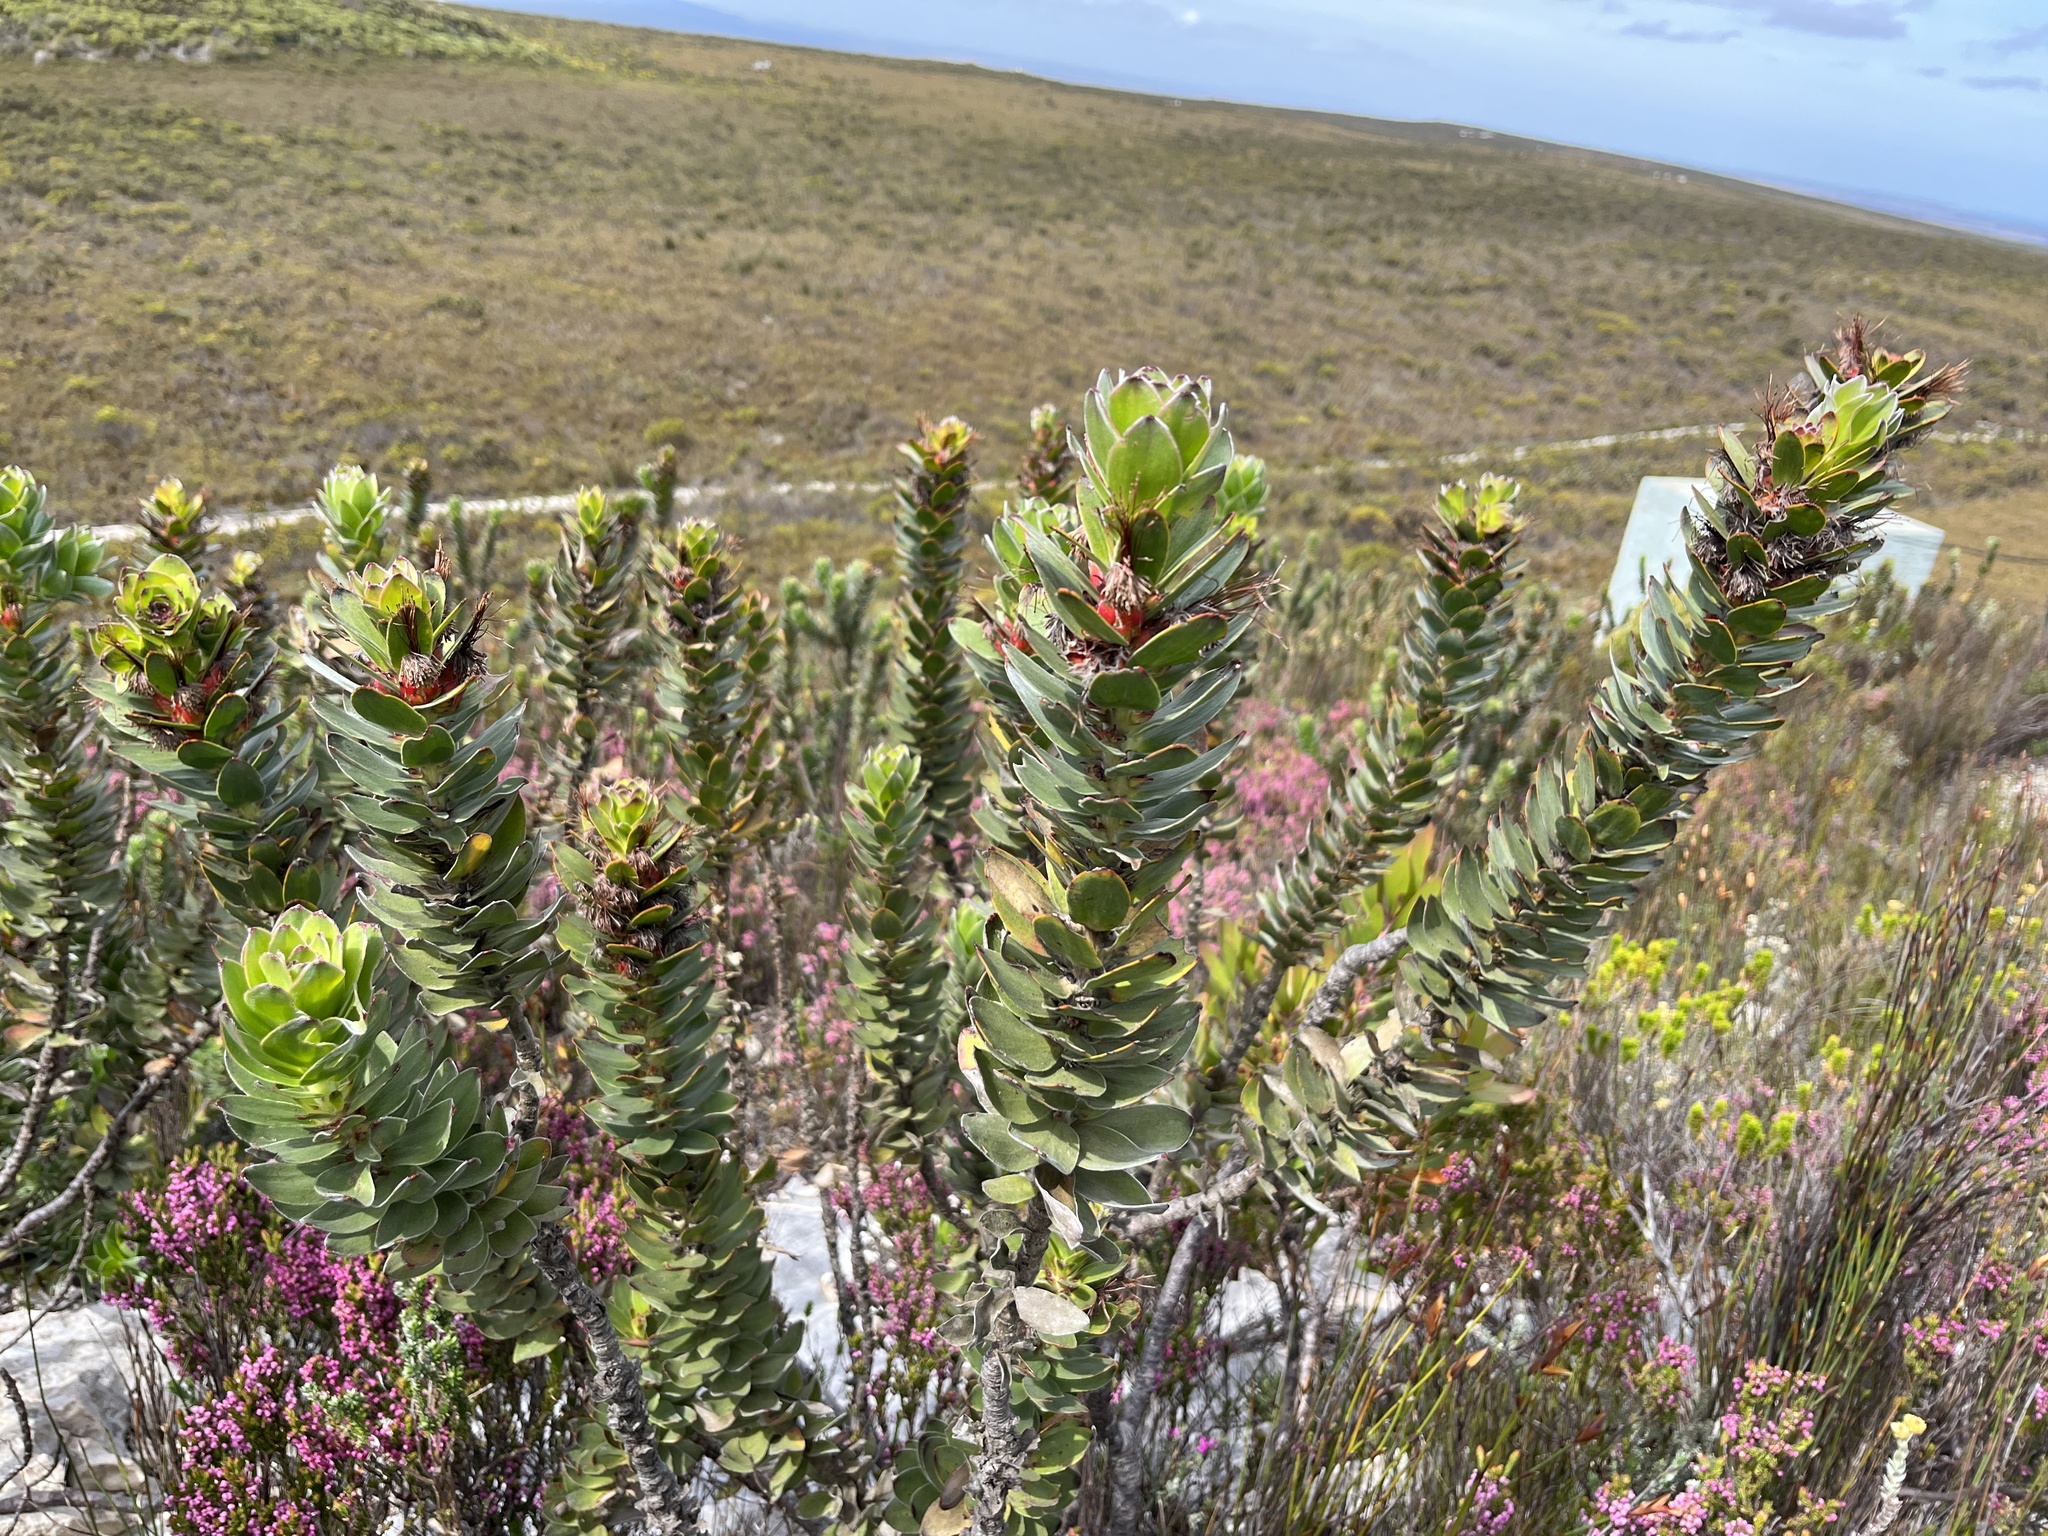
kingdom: Plantae
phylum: Tracheophyta
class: Magnoliopsida
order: Proteales
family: Proteaceae
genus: Mimetes
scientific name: Mimetes saxatilis
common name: Limestone pagoda
